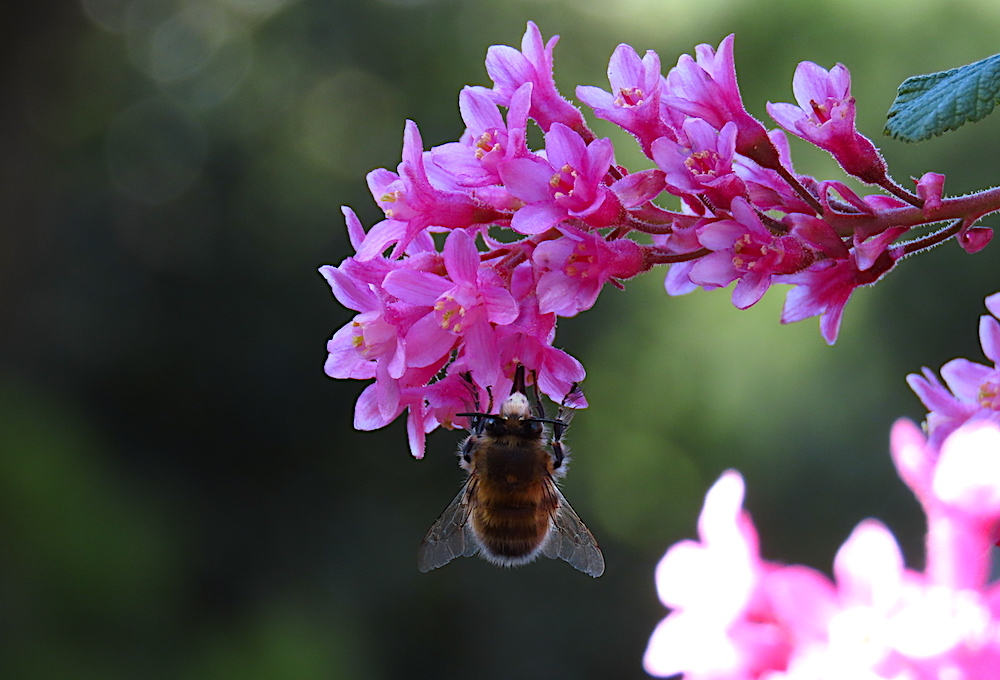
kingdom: Animalia
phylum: Arthropoda
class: Insecta
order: Hymenoptera
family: Apidae
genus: Anthophora
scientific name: Anthophora plumipes
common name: Hairy-footed flower bee
